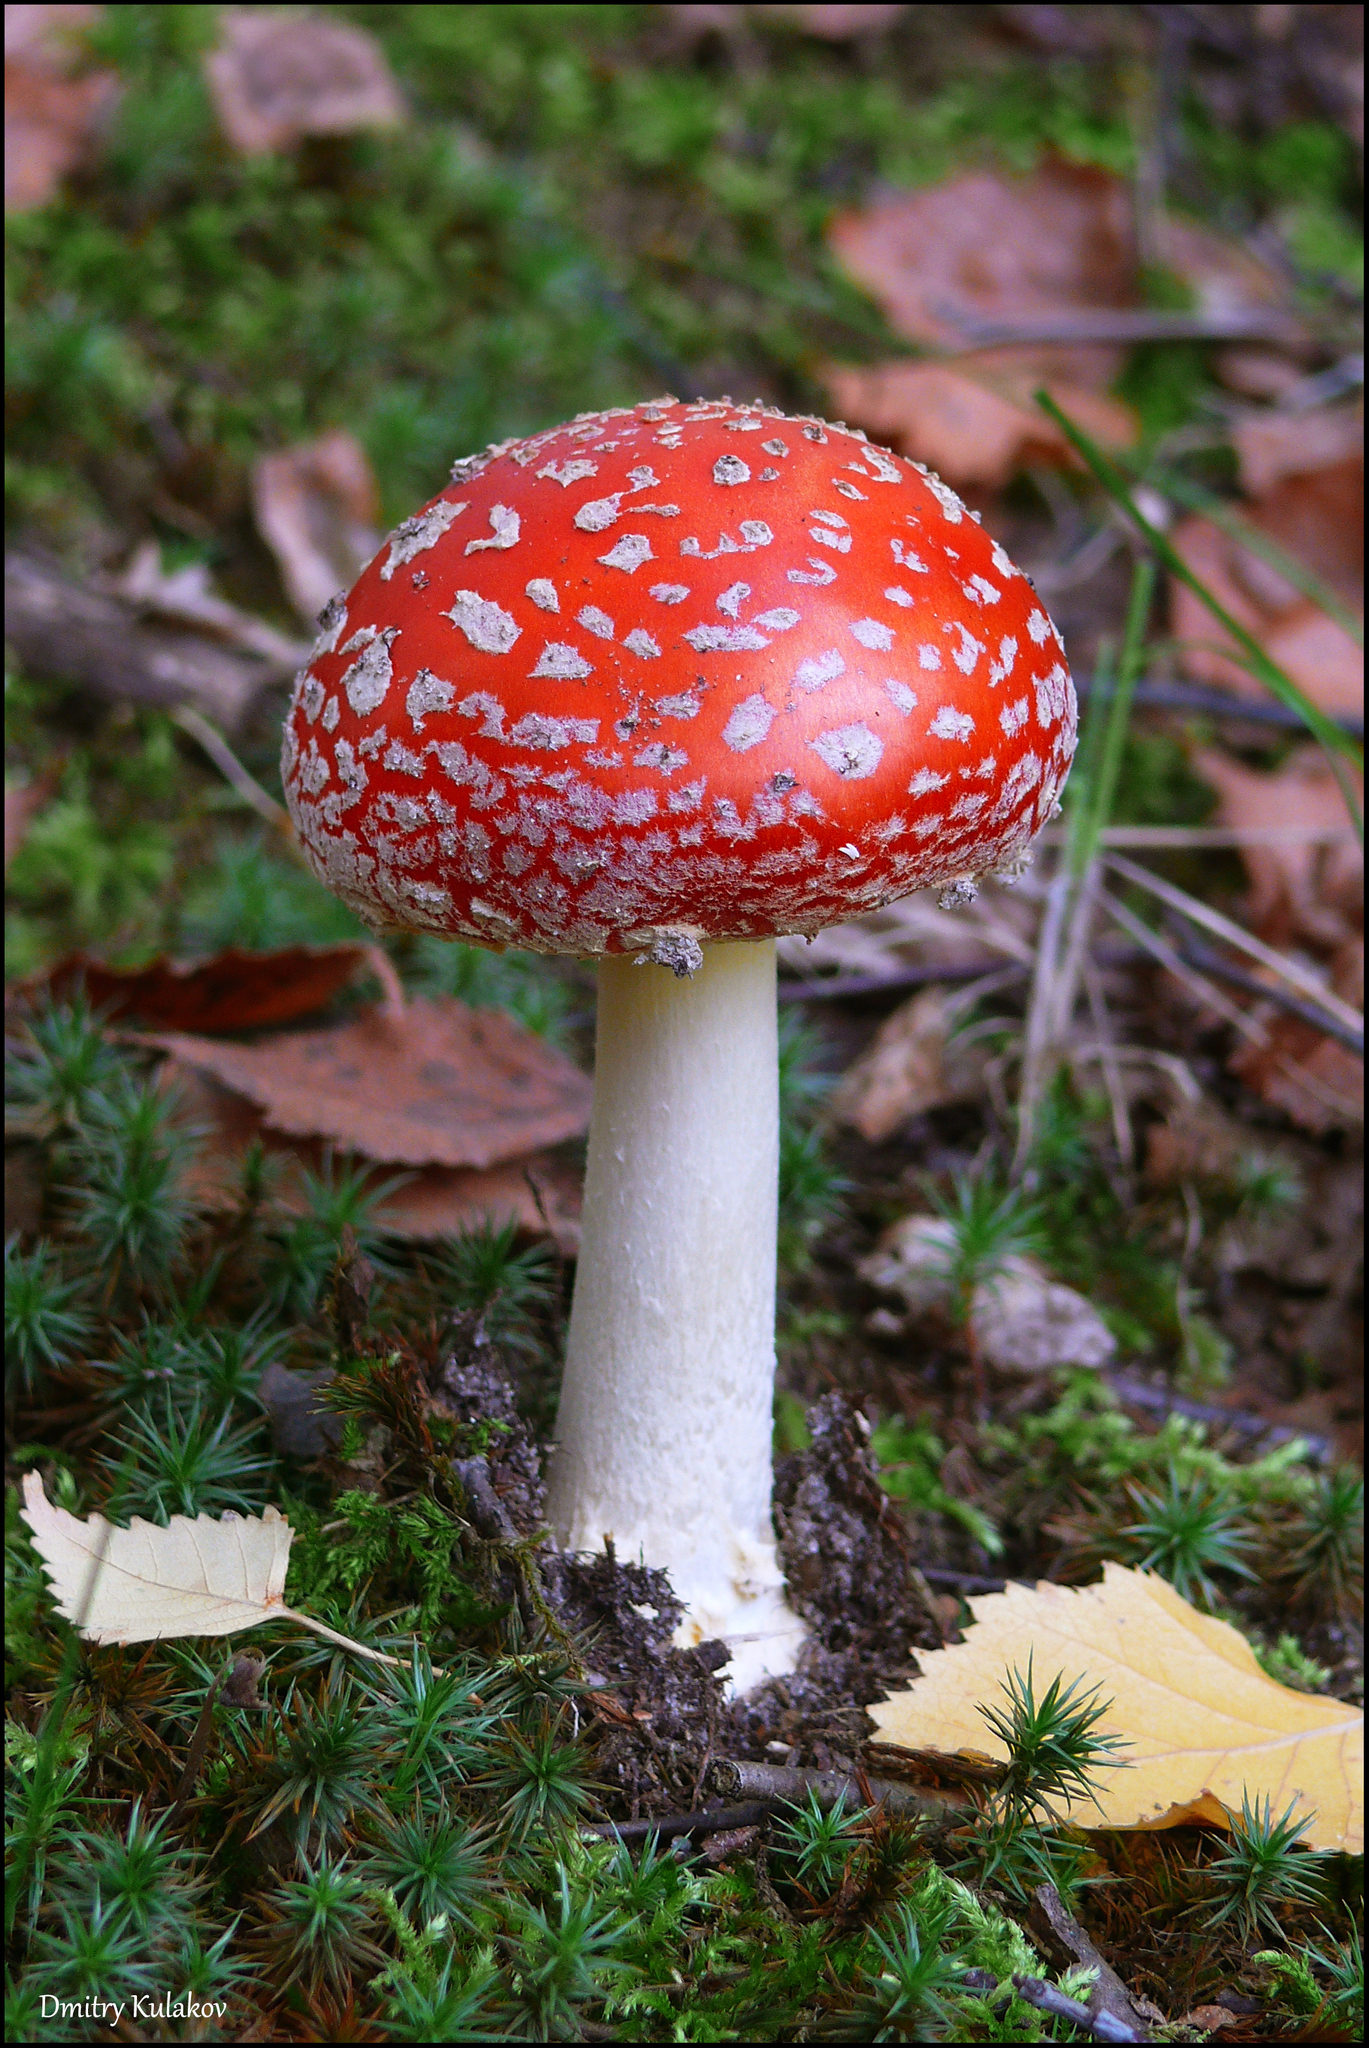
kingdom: Fungi
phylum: Basidiomycota
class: Agaricomycetes
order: Agaricales
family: Amanitaceae
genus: Amanita
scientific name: Amanita muscaria
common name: Fly agaric
